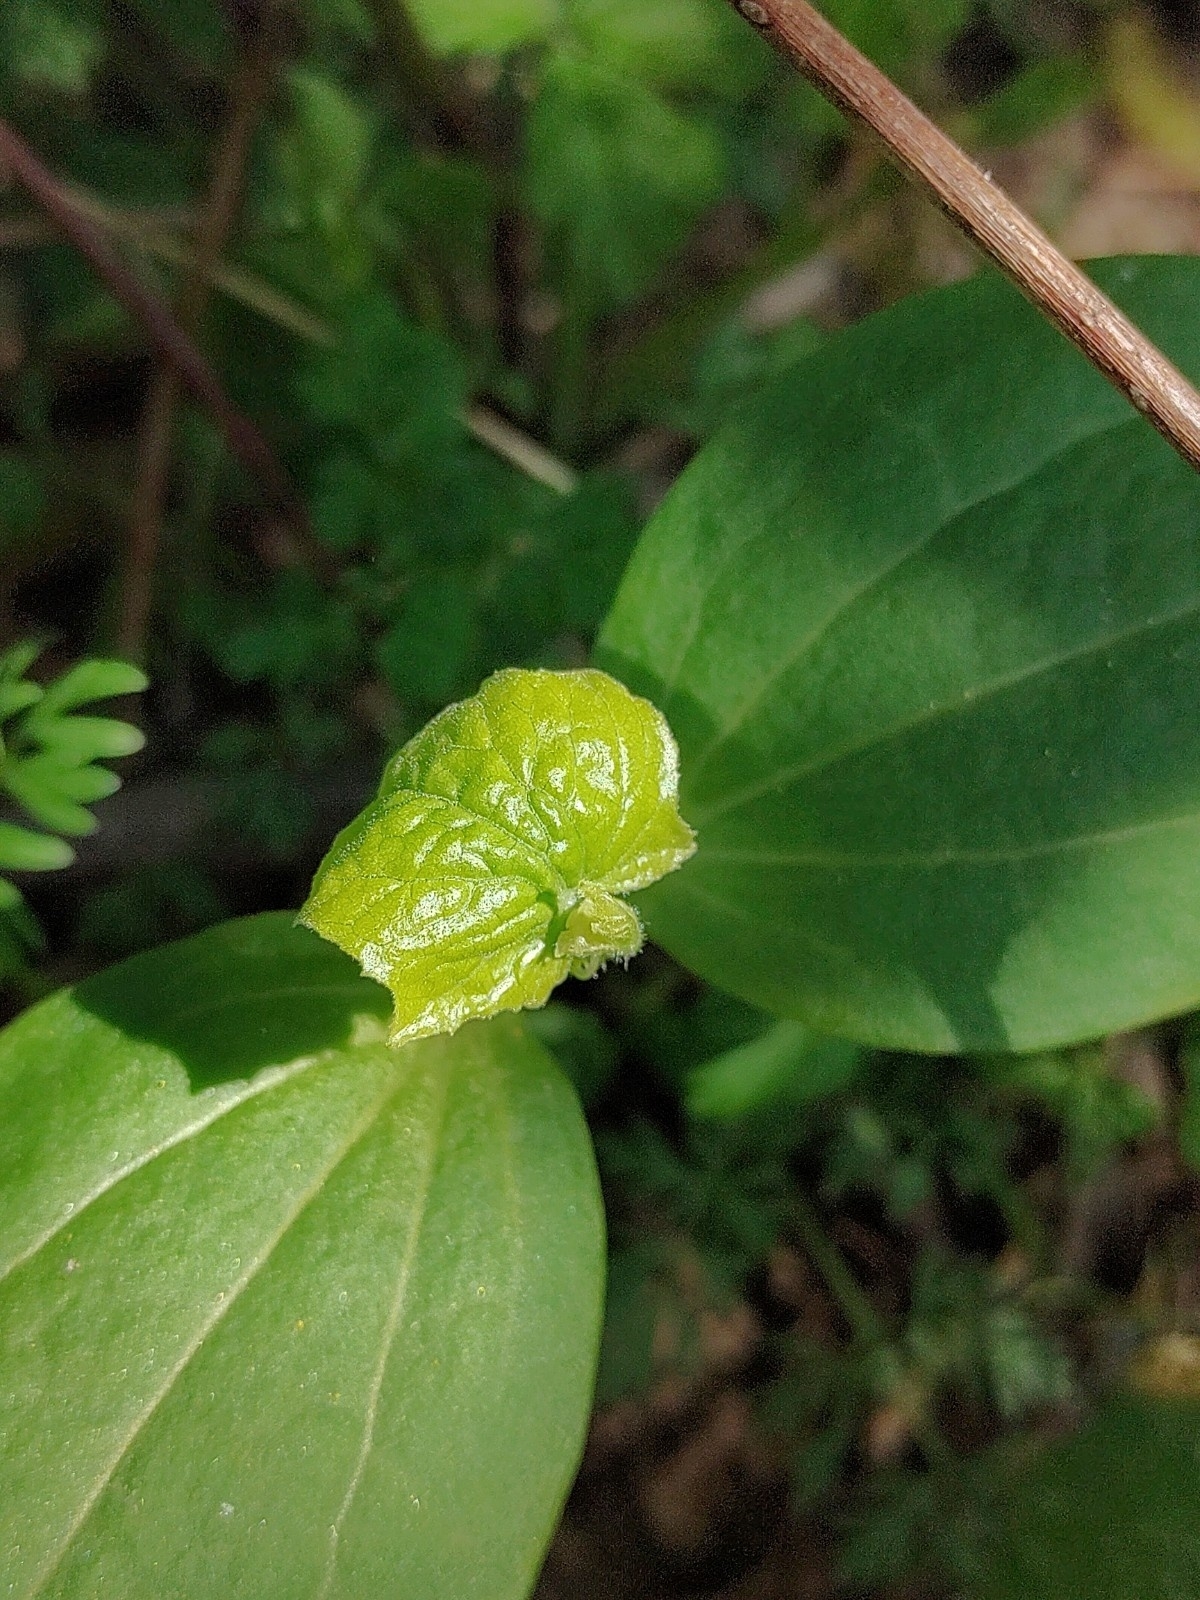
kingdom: Plantae
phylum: Tracheophyta
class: Magnoliopsida
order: Cucurbitales
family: Cucurbitaceae
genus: Echinocystis
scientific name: Echinocystis lobata
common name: Wild cucumber
